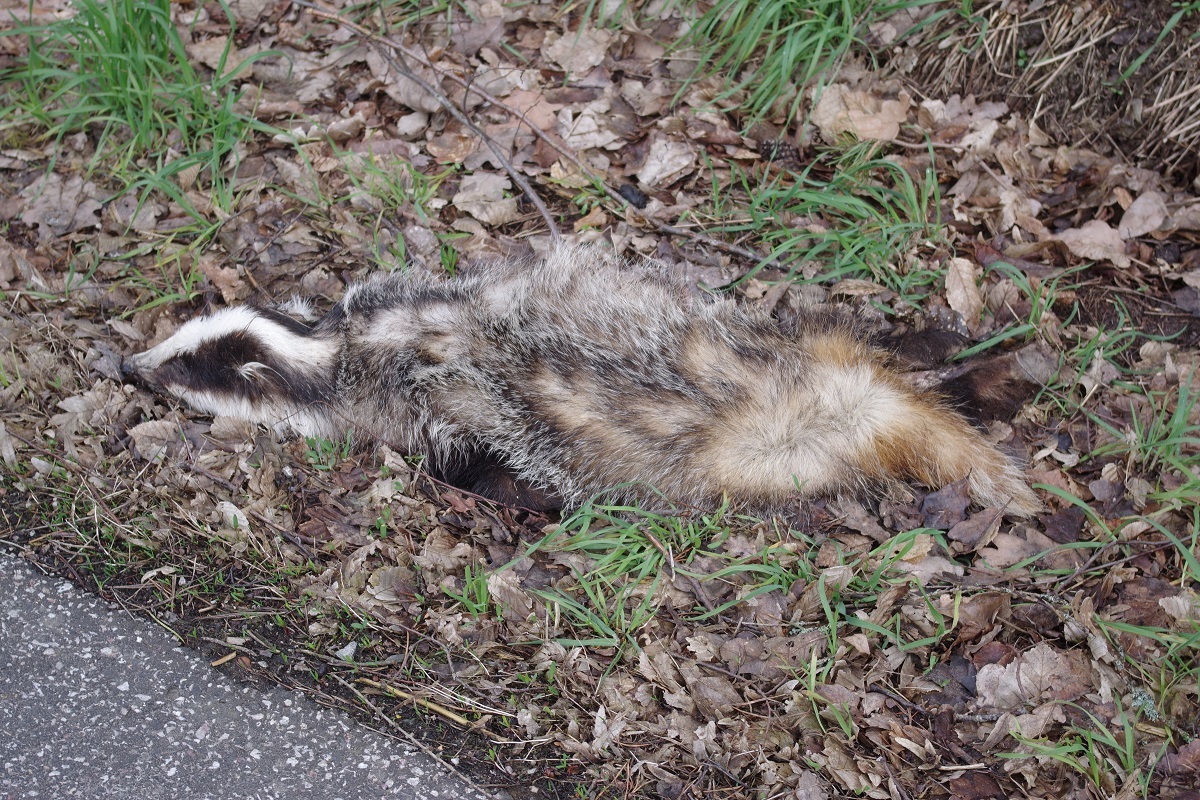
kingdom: Animalia
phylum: Chordata
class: Mammalia
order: Carnivora
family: Mustelidae
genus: Meles
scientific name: Meles meles
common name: Eurasian badger
